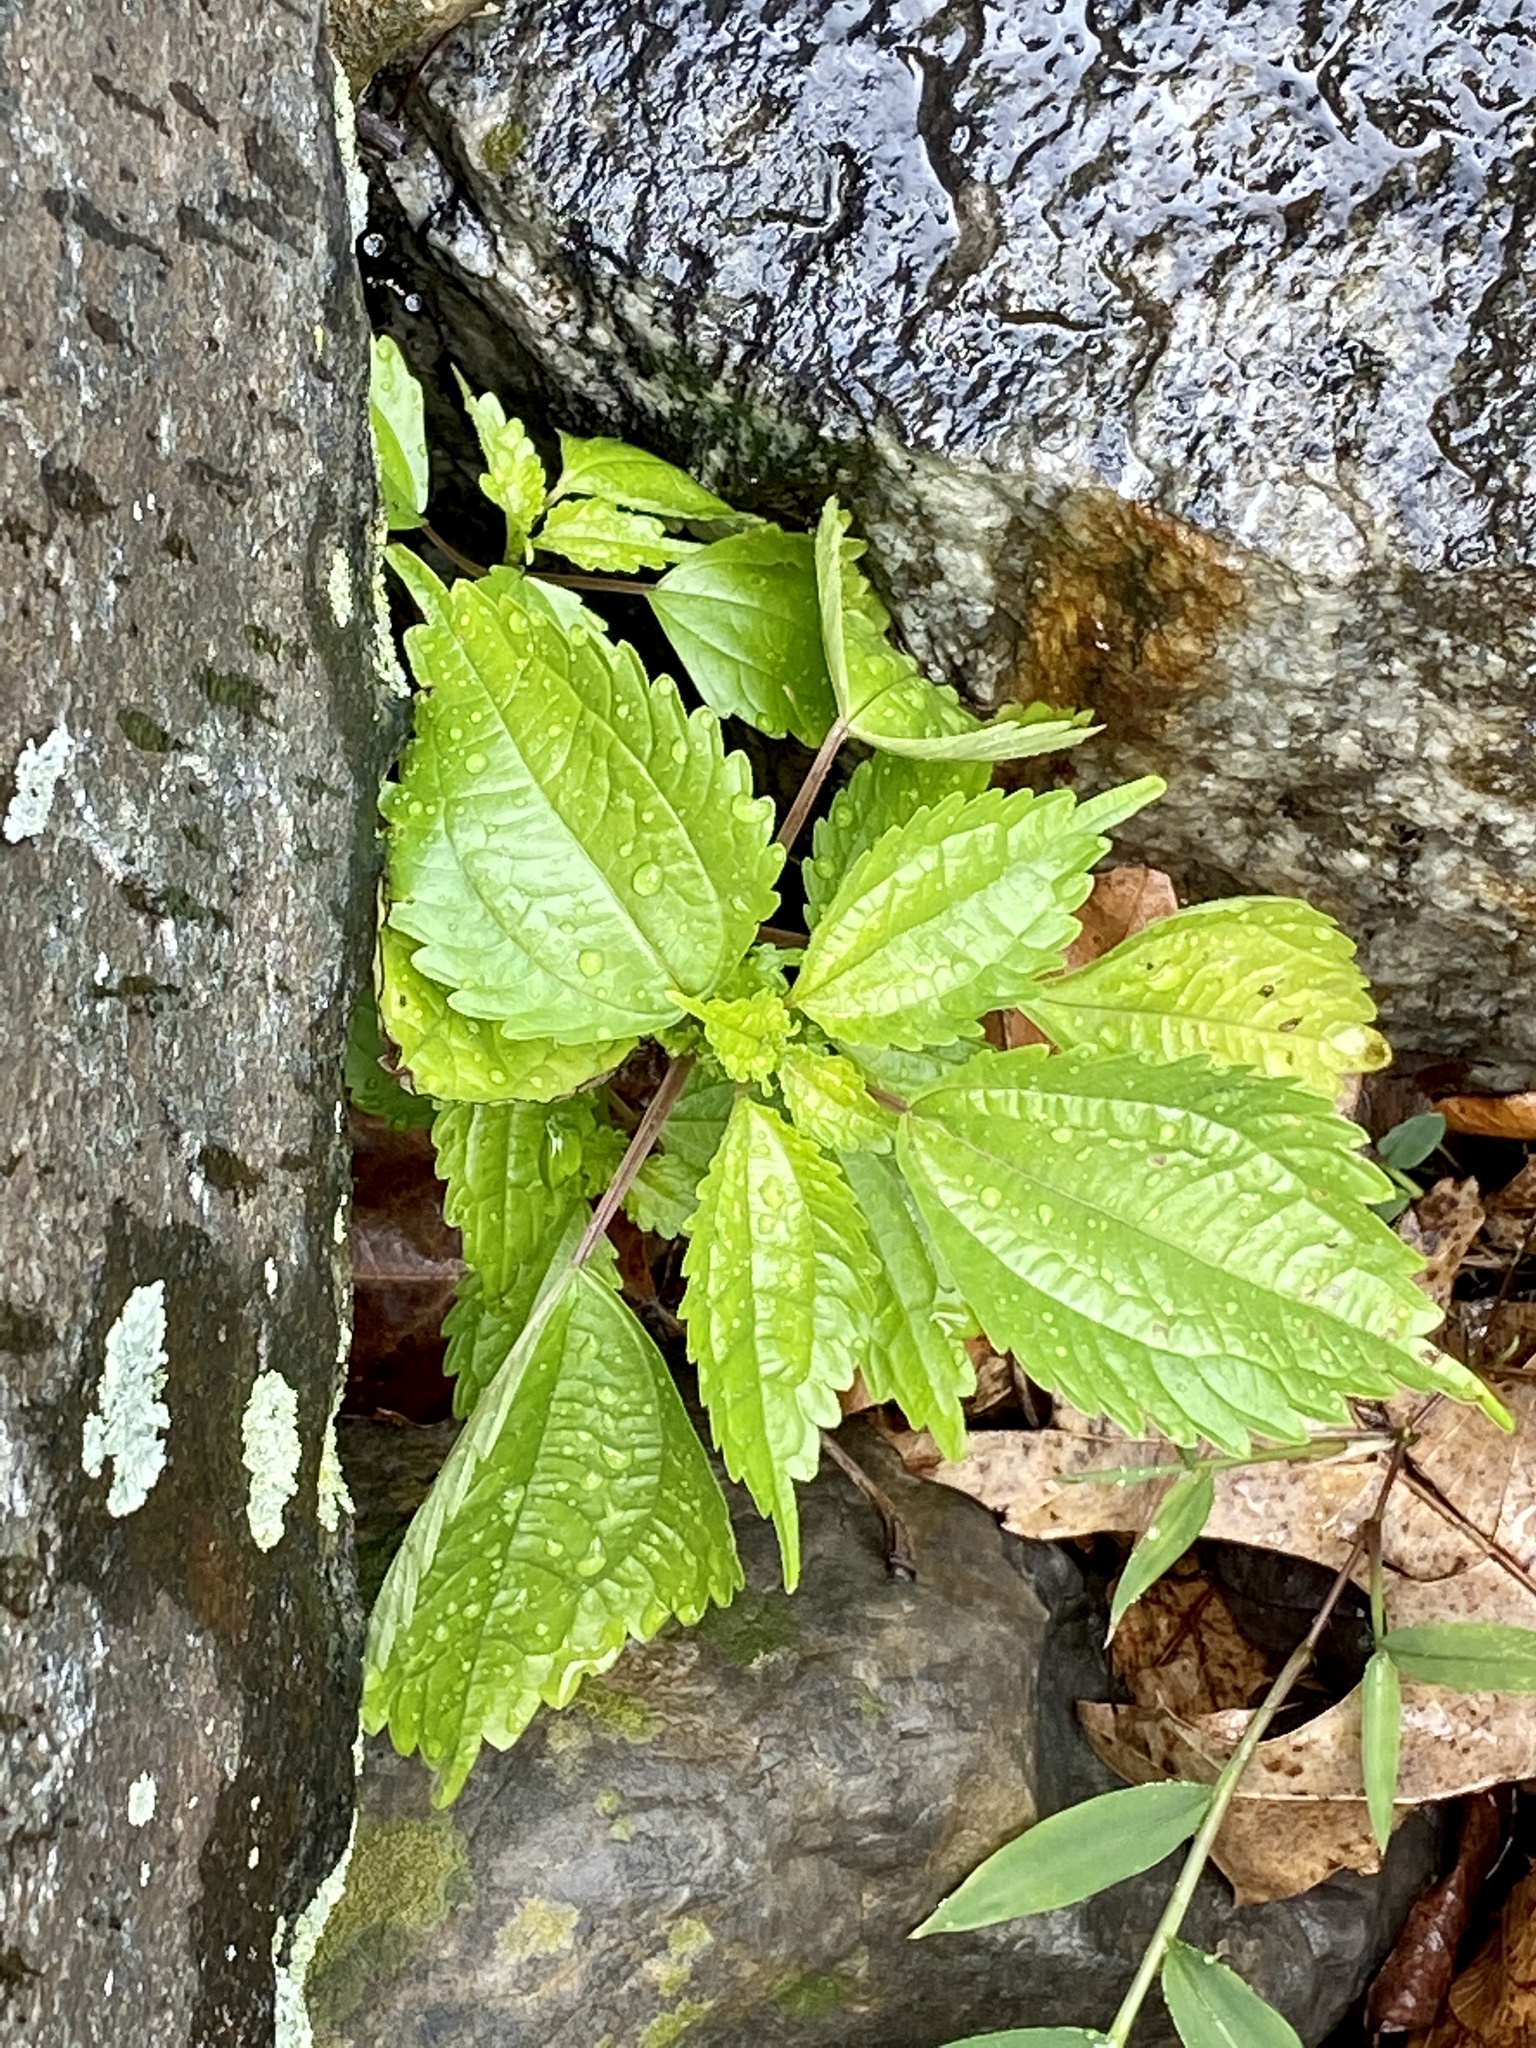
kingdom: Plantae
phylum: Tracheophyta
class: Magnoliopsida
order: Rosales
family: Urticaceae
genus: Pilea
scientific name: Pilea pumila
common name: Clearweed
